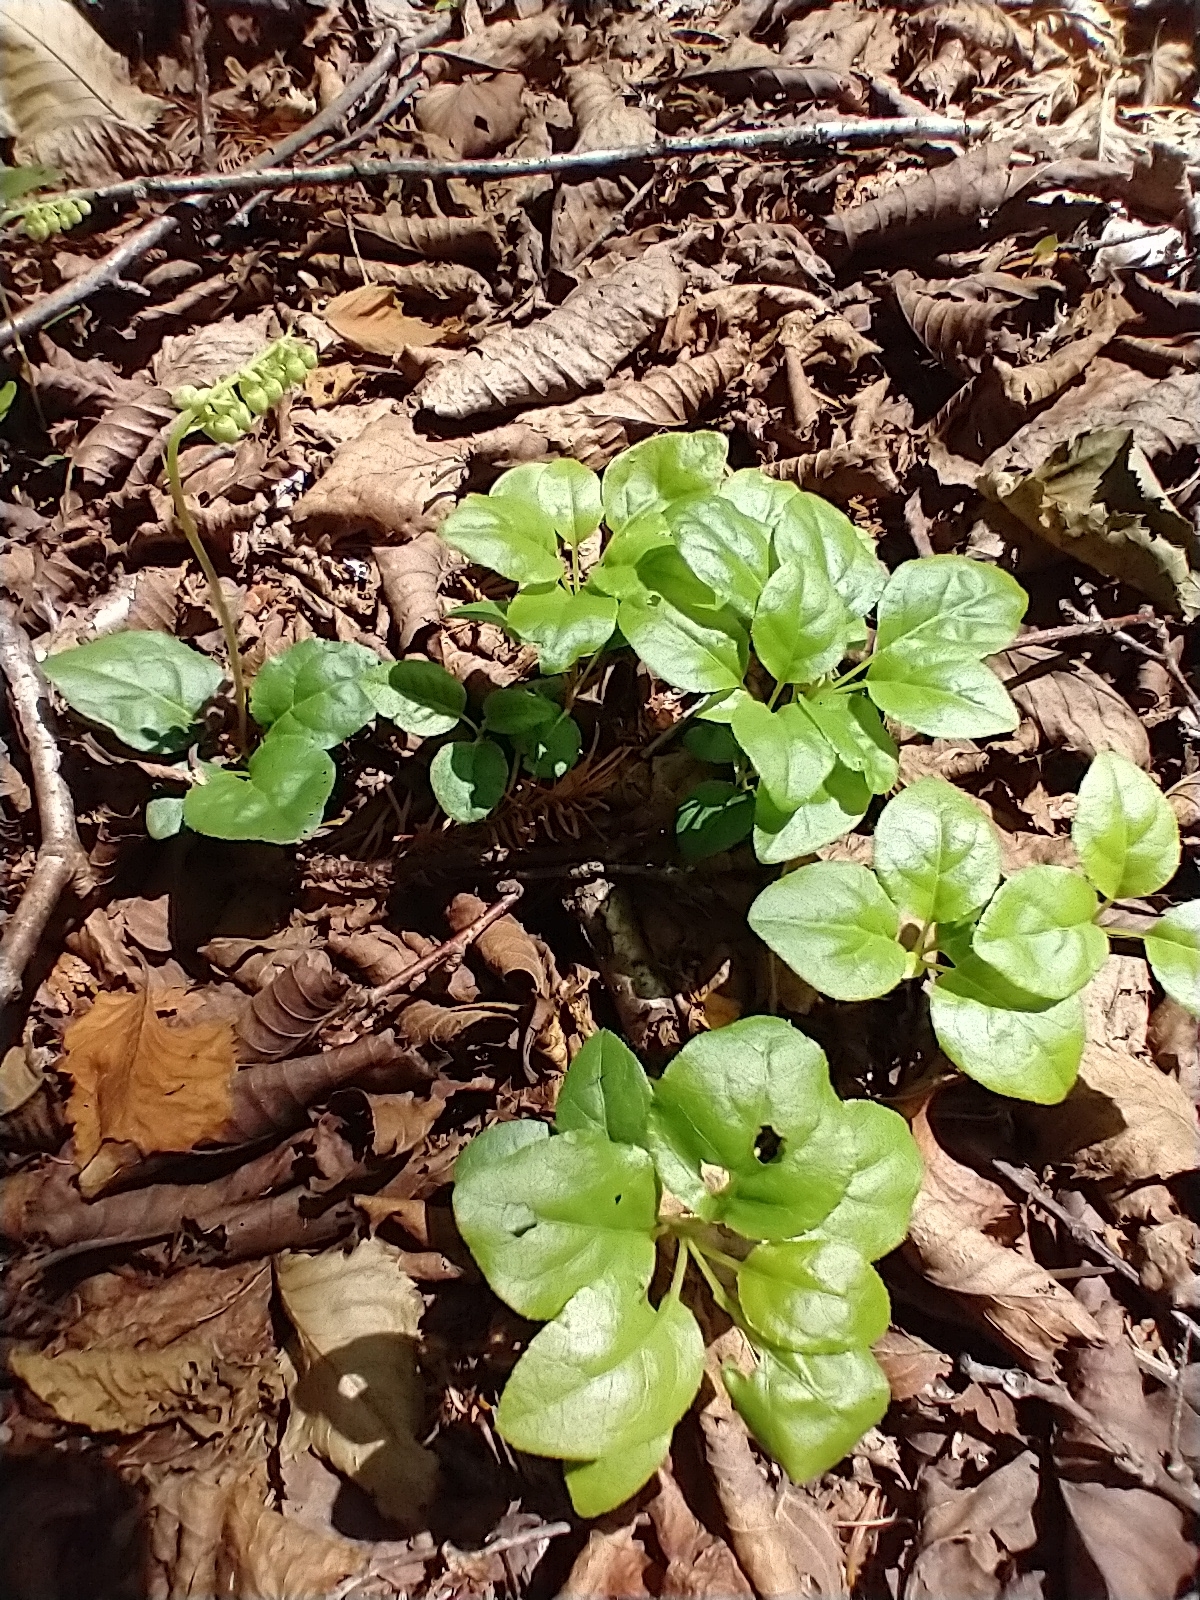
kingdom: Plantae
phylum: Tracheophyta
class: Magnoliopsida
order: Ericales
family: Ericaceae
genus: Orthilia
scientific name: Orthilia secunda
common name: One-sided orthilia
